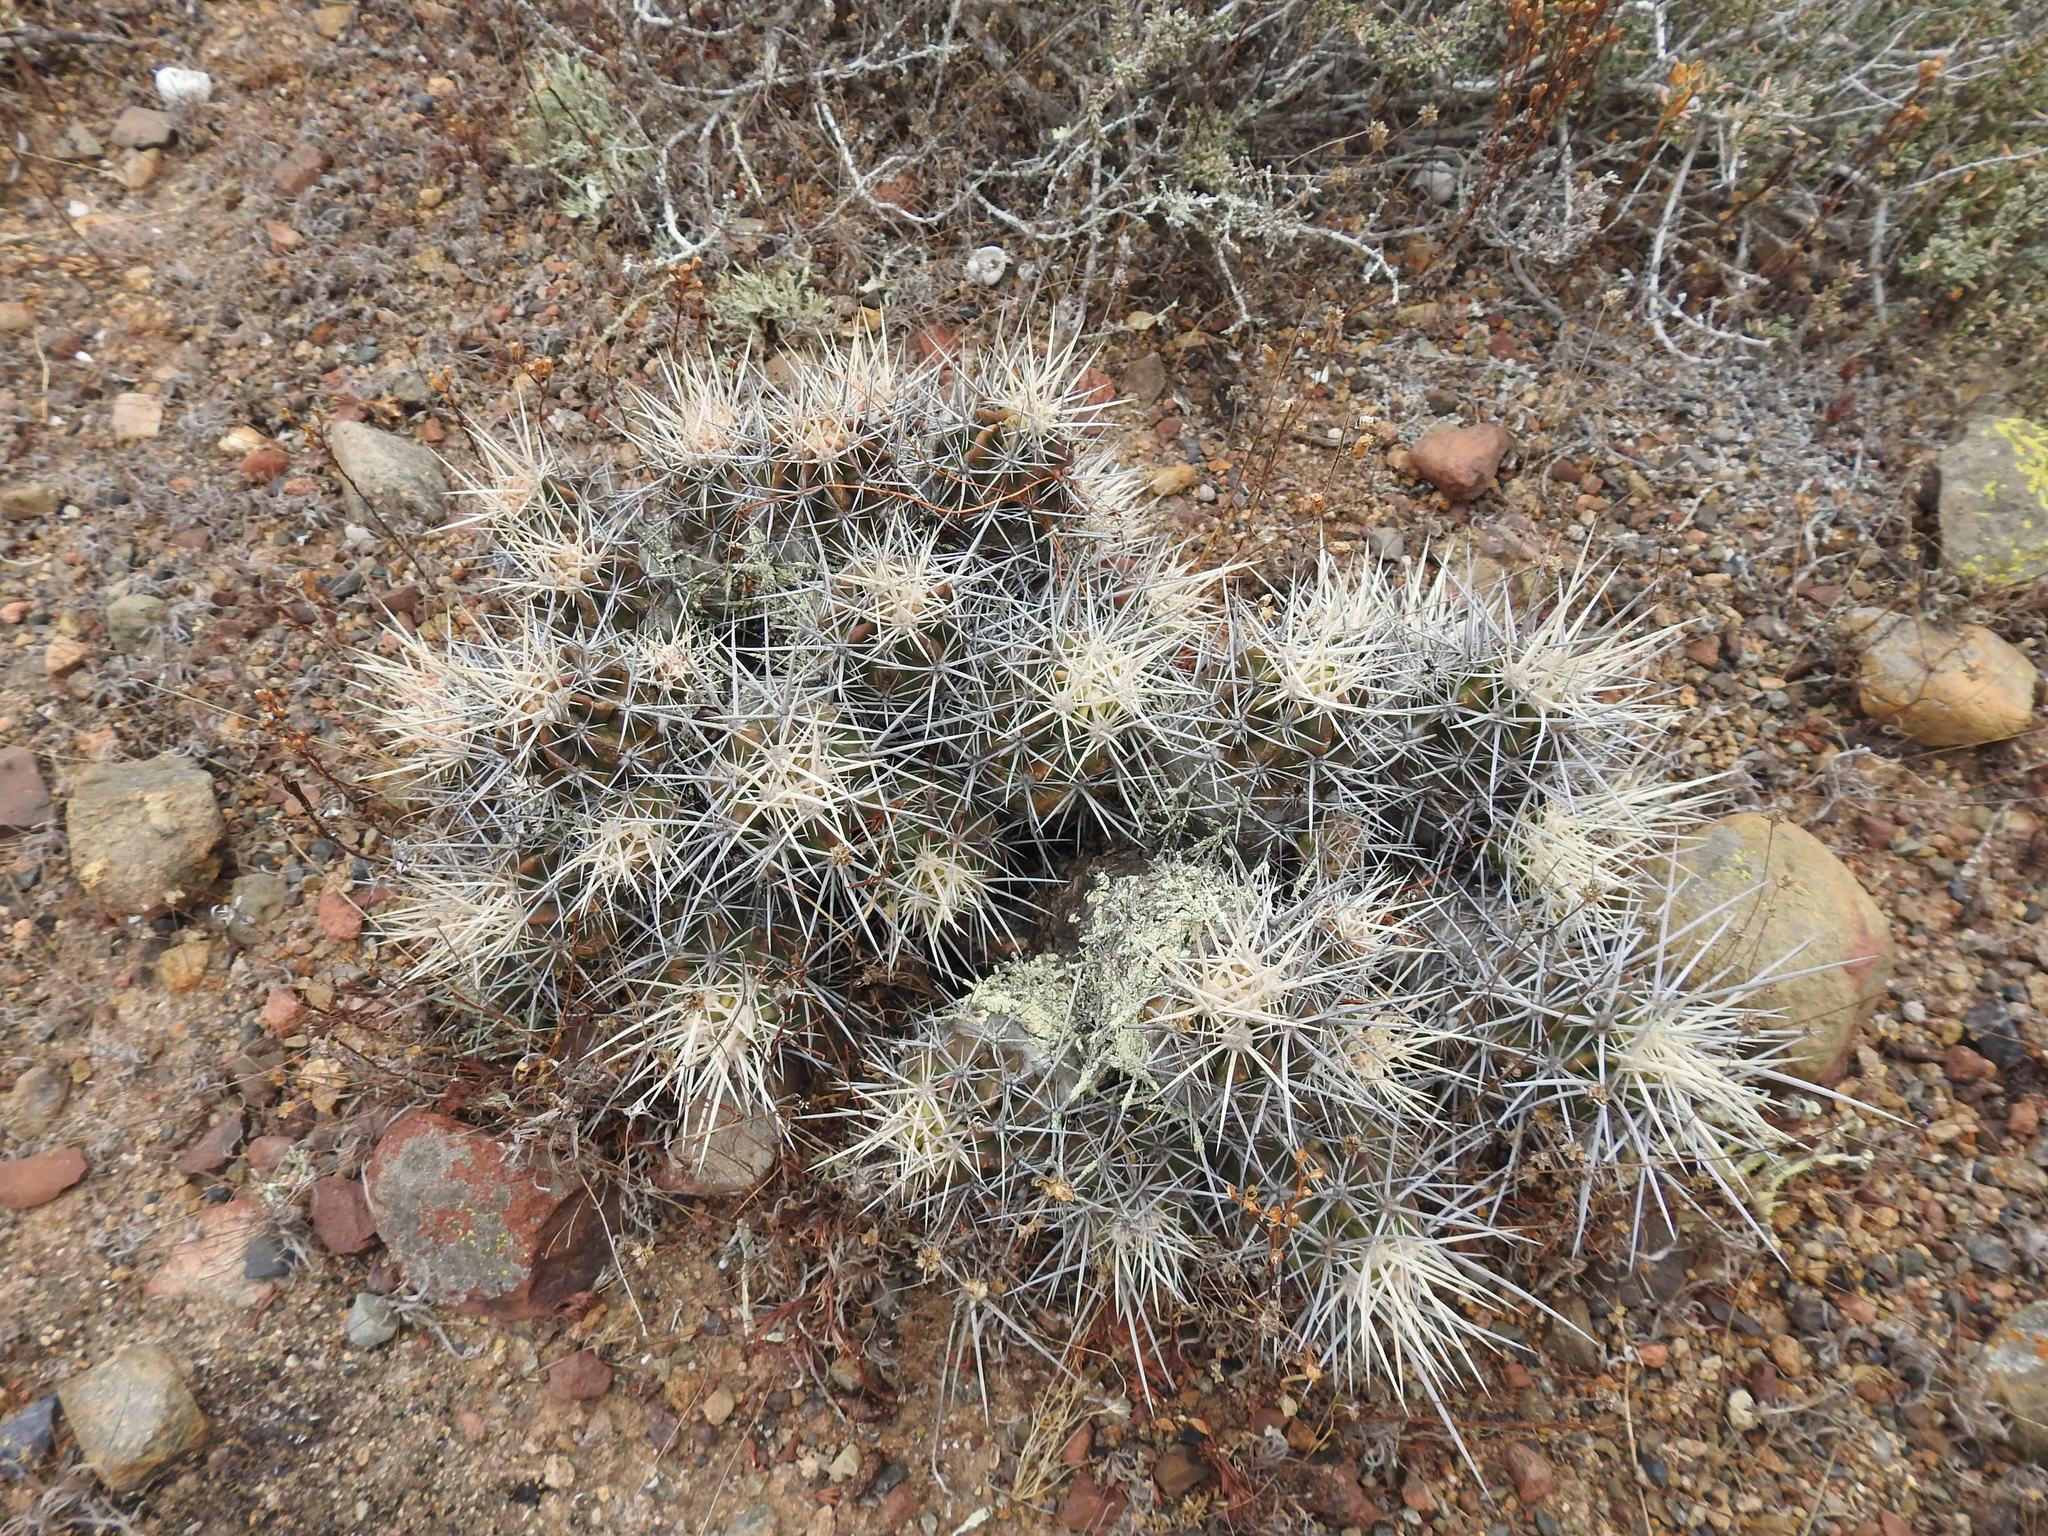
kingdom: Plantae
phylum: Tracheophyta
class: Magnoliopsida
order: Caryophyllales
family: Cactaceae
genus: Echinocereus
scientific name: Echinocereus maritimus
